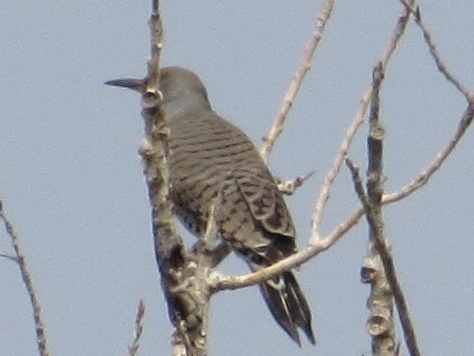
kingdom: Animalia
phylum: Chordata
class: Aves
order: Piciformes
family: Picidae
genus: Colaptes
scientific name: Colaptes auratus
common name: Northern flicker
